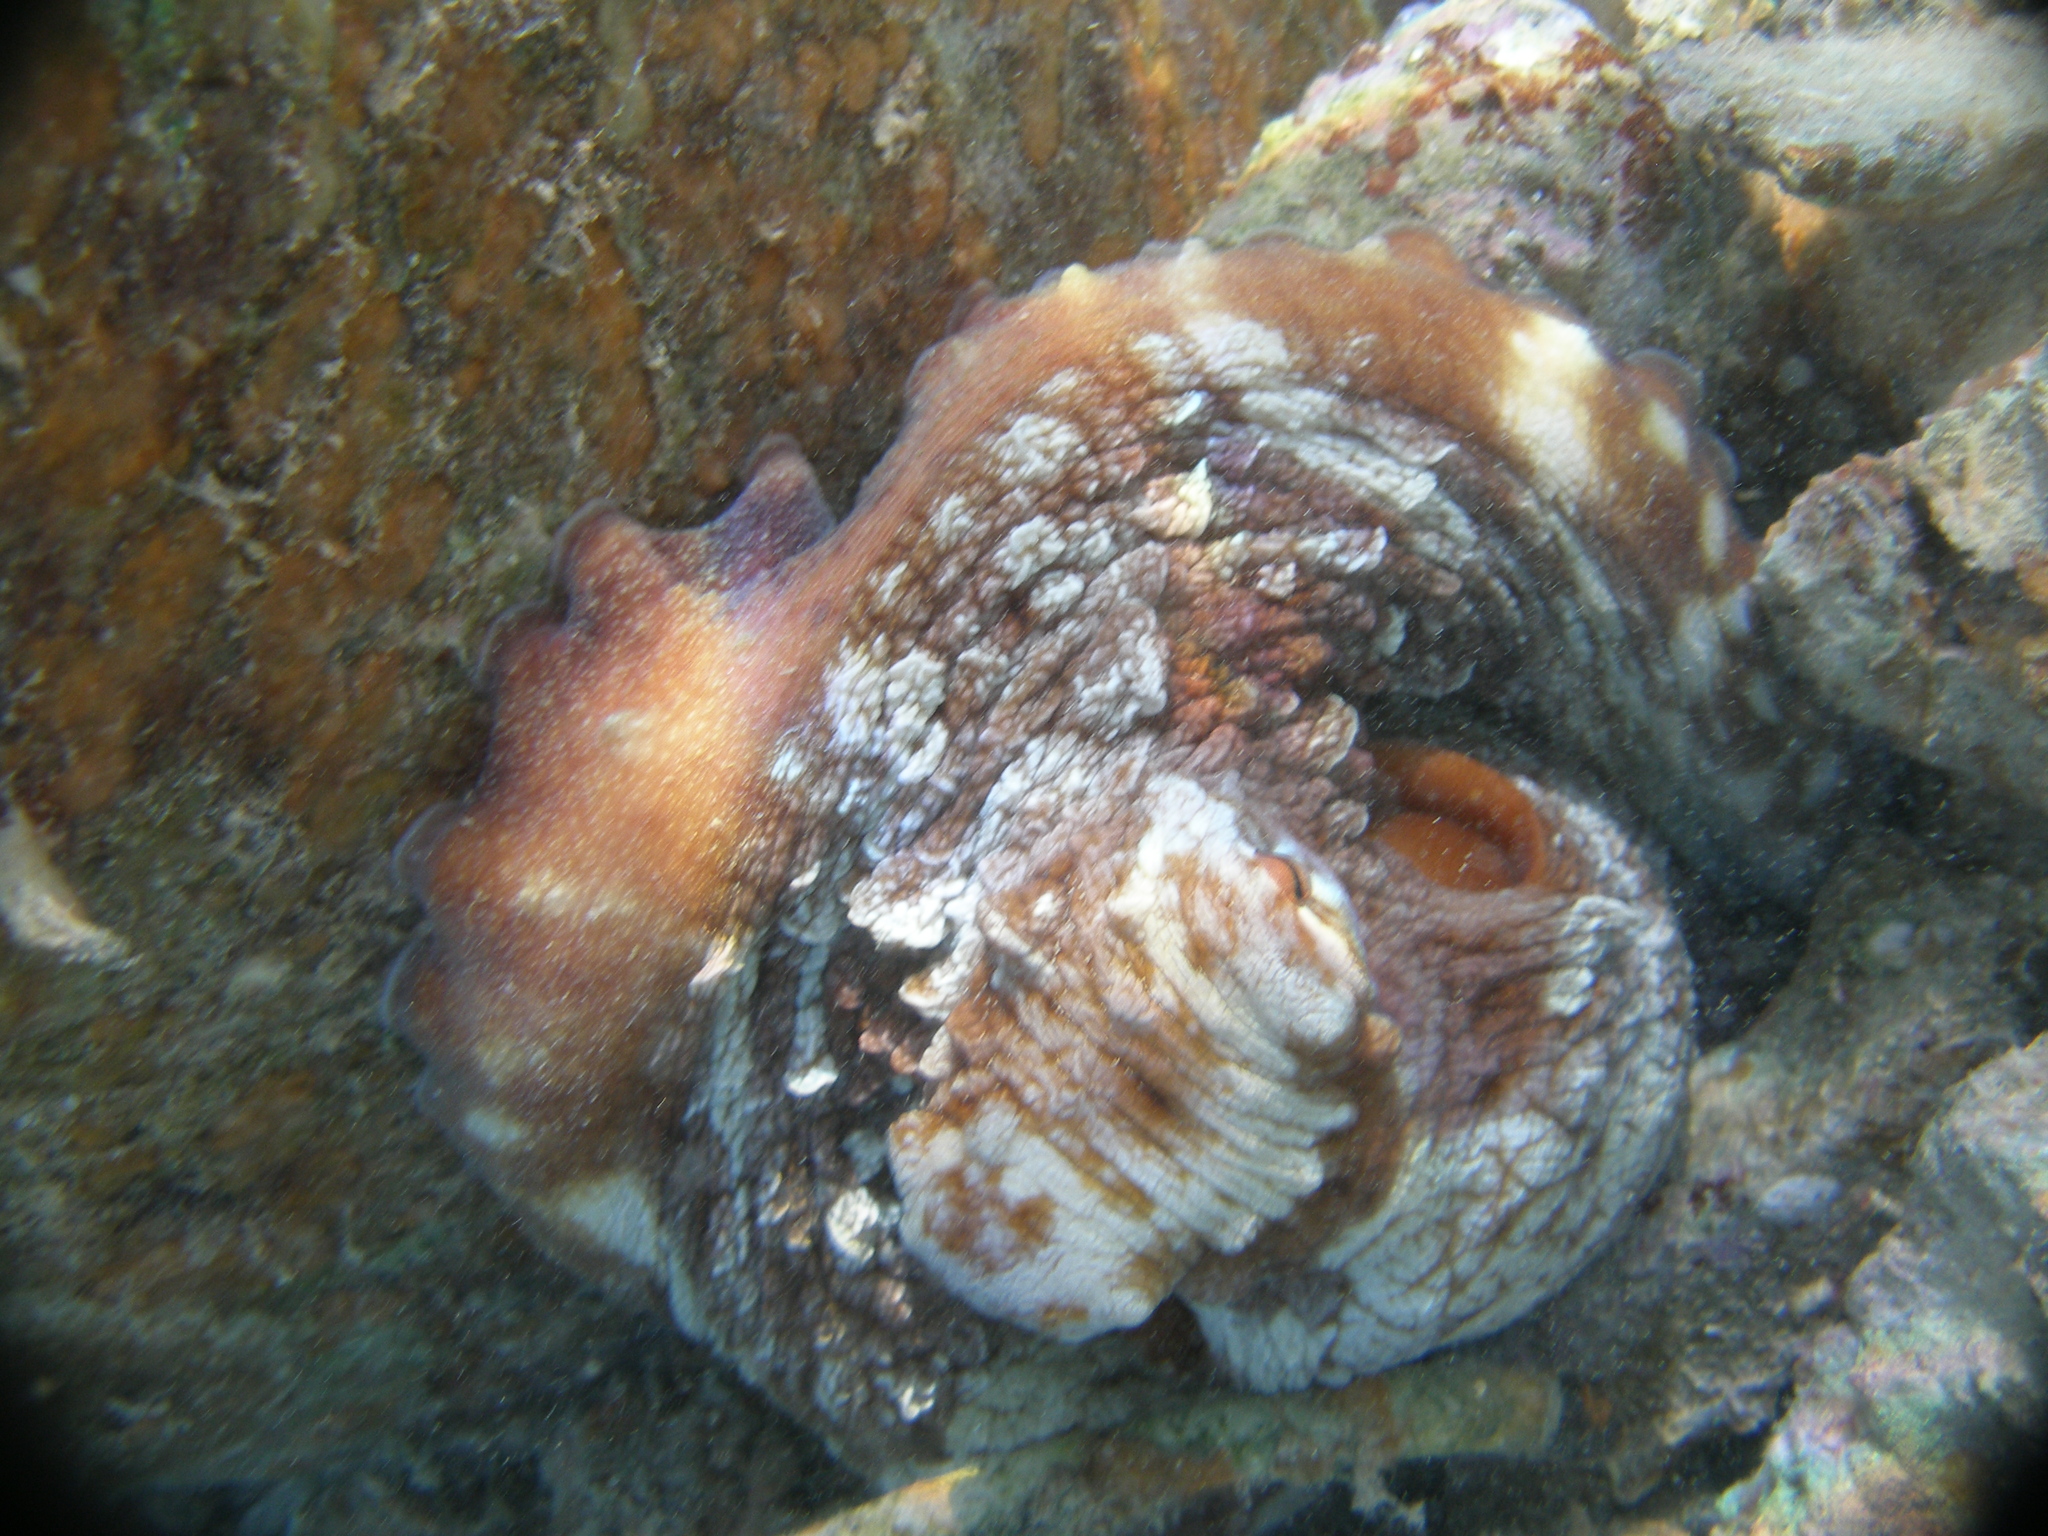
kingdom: Animalia
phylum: Mollusca
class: Cephalopoda
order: Octopoda
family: Octopodidae
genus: Octopus
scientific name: Octopus cyanea
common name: Cyane's octopus
